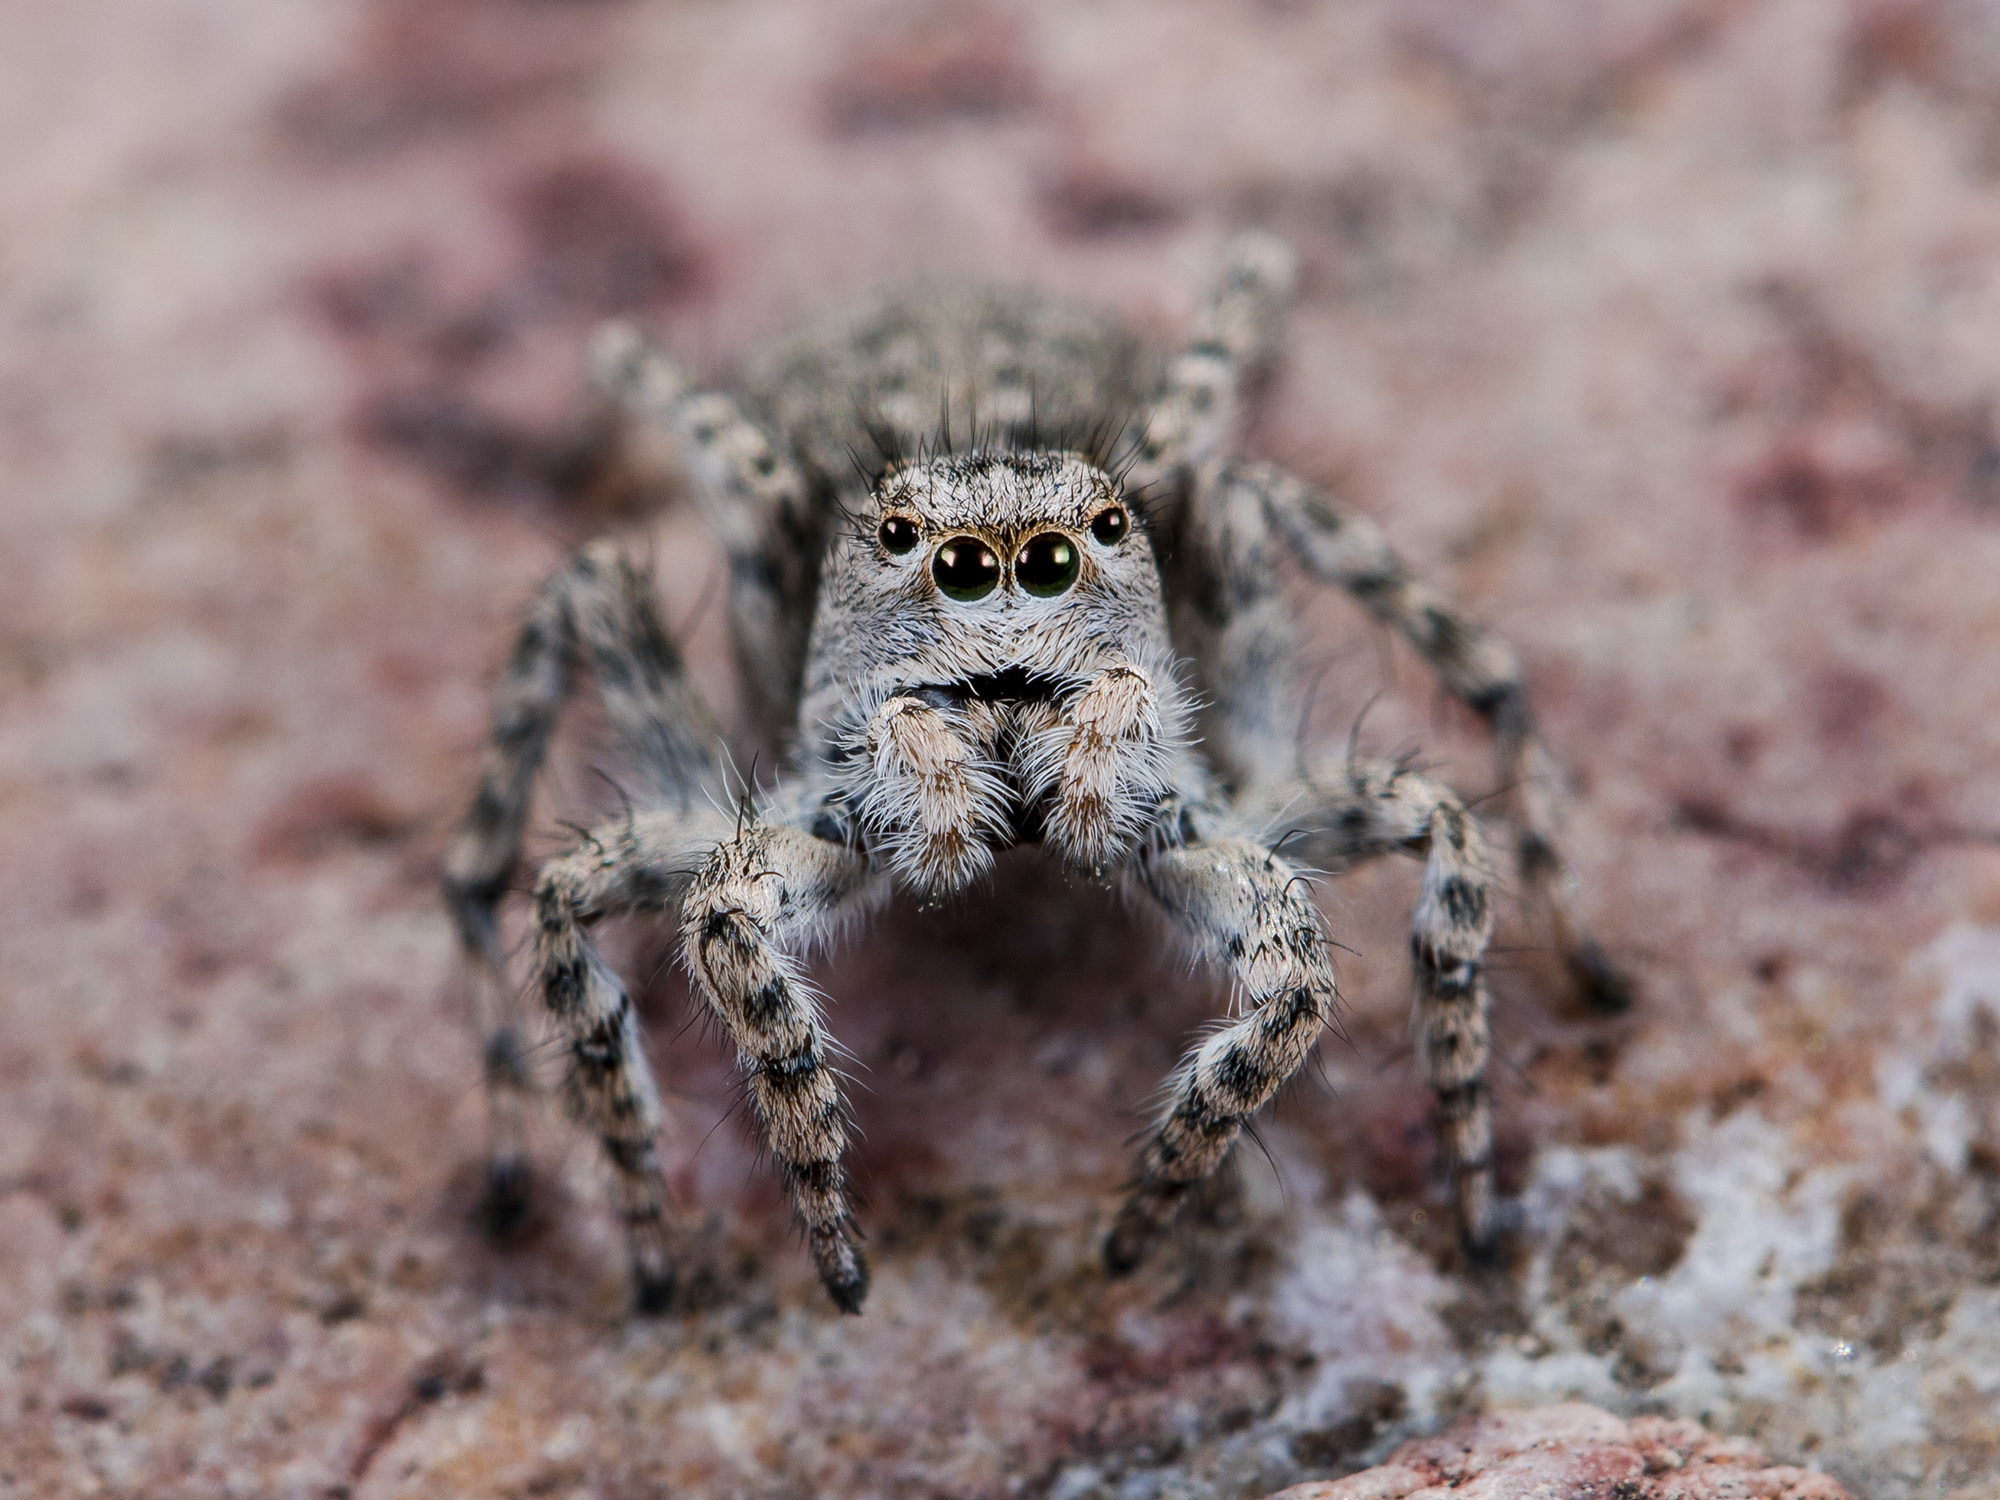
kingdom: Animalia
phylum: Arthropoda
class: Arachnida
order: Araneae
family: Salticidae
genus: Aelurillus
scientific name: Aelurillus dubatolovi
